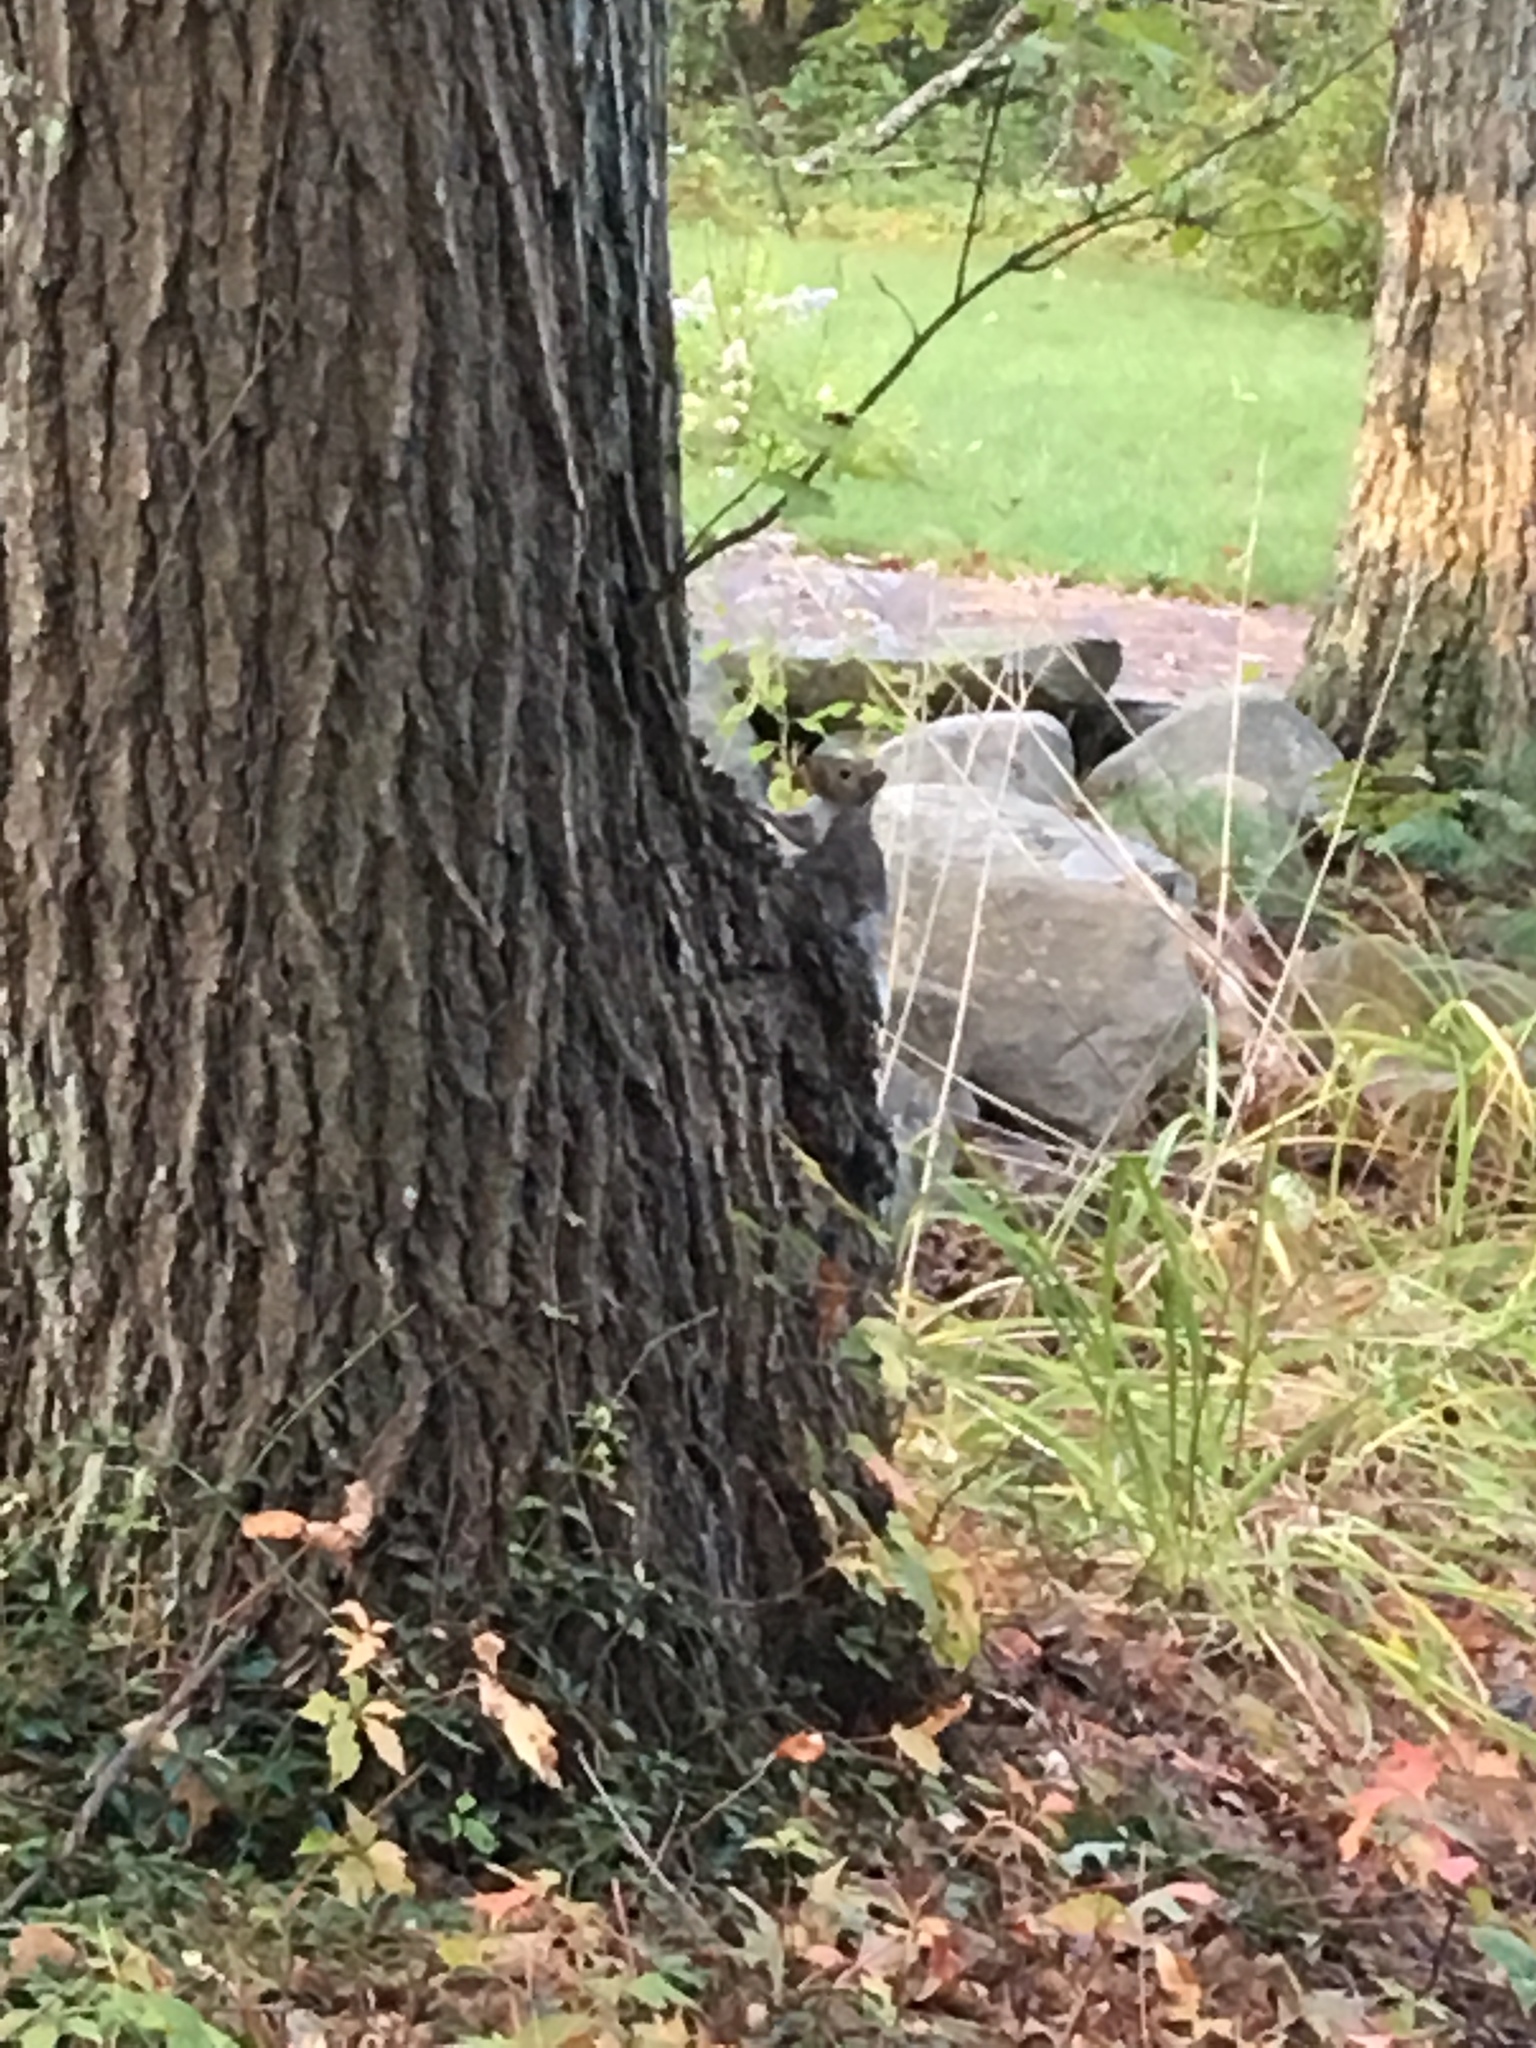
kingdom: Animalia
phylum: Chordata
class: Mammalia
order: Rodentia
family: Sciuridae
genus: Sciurus
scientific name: Sciurus carolinensis
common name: Eastern gray squirrel
